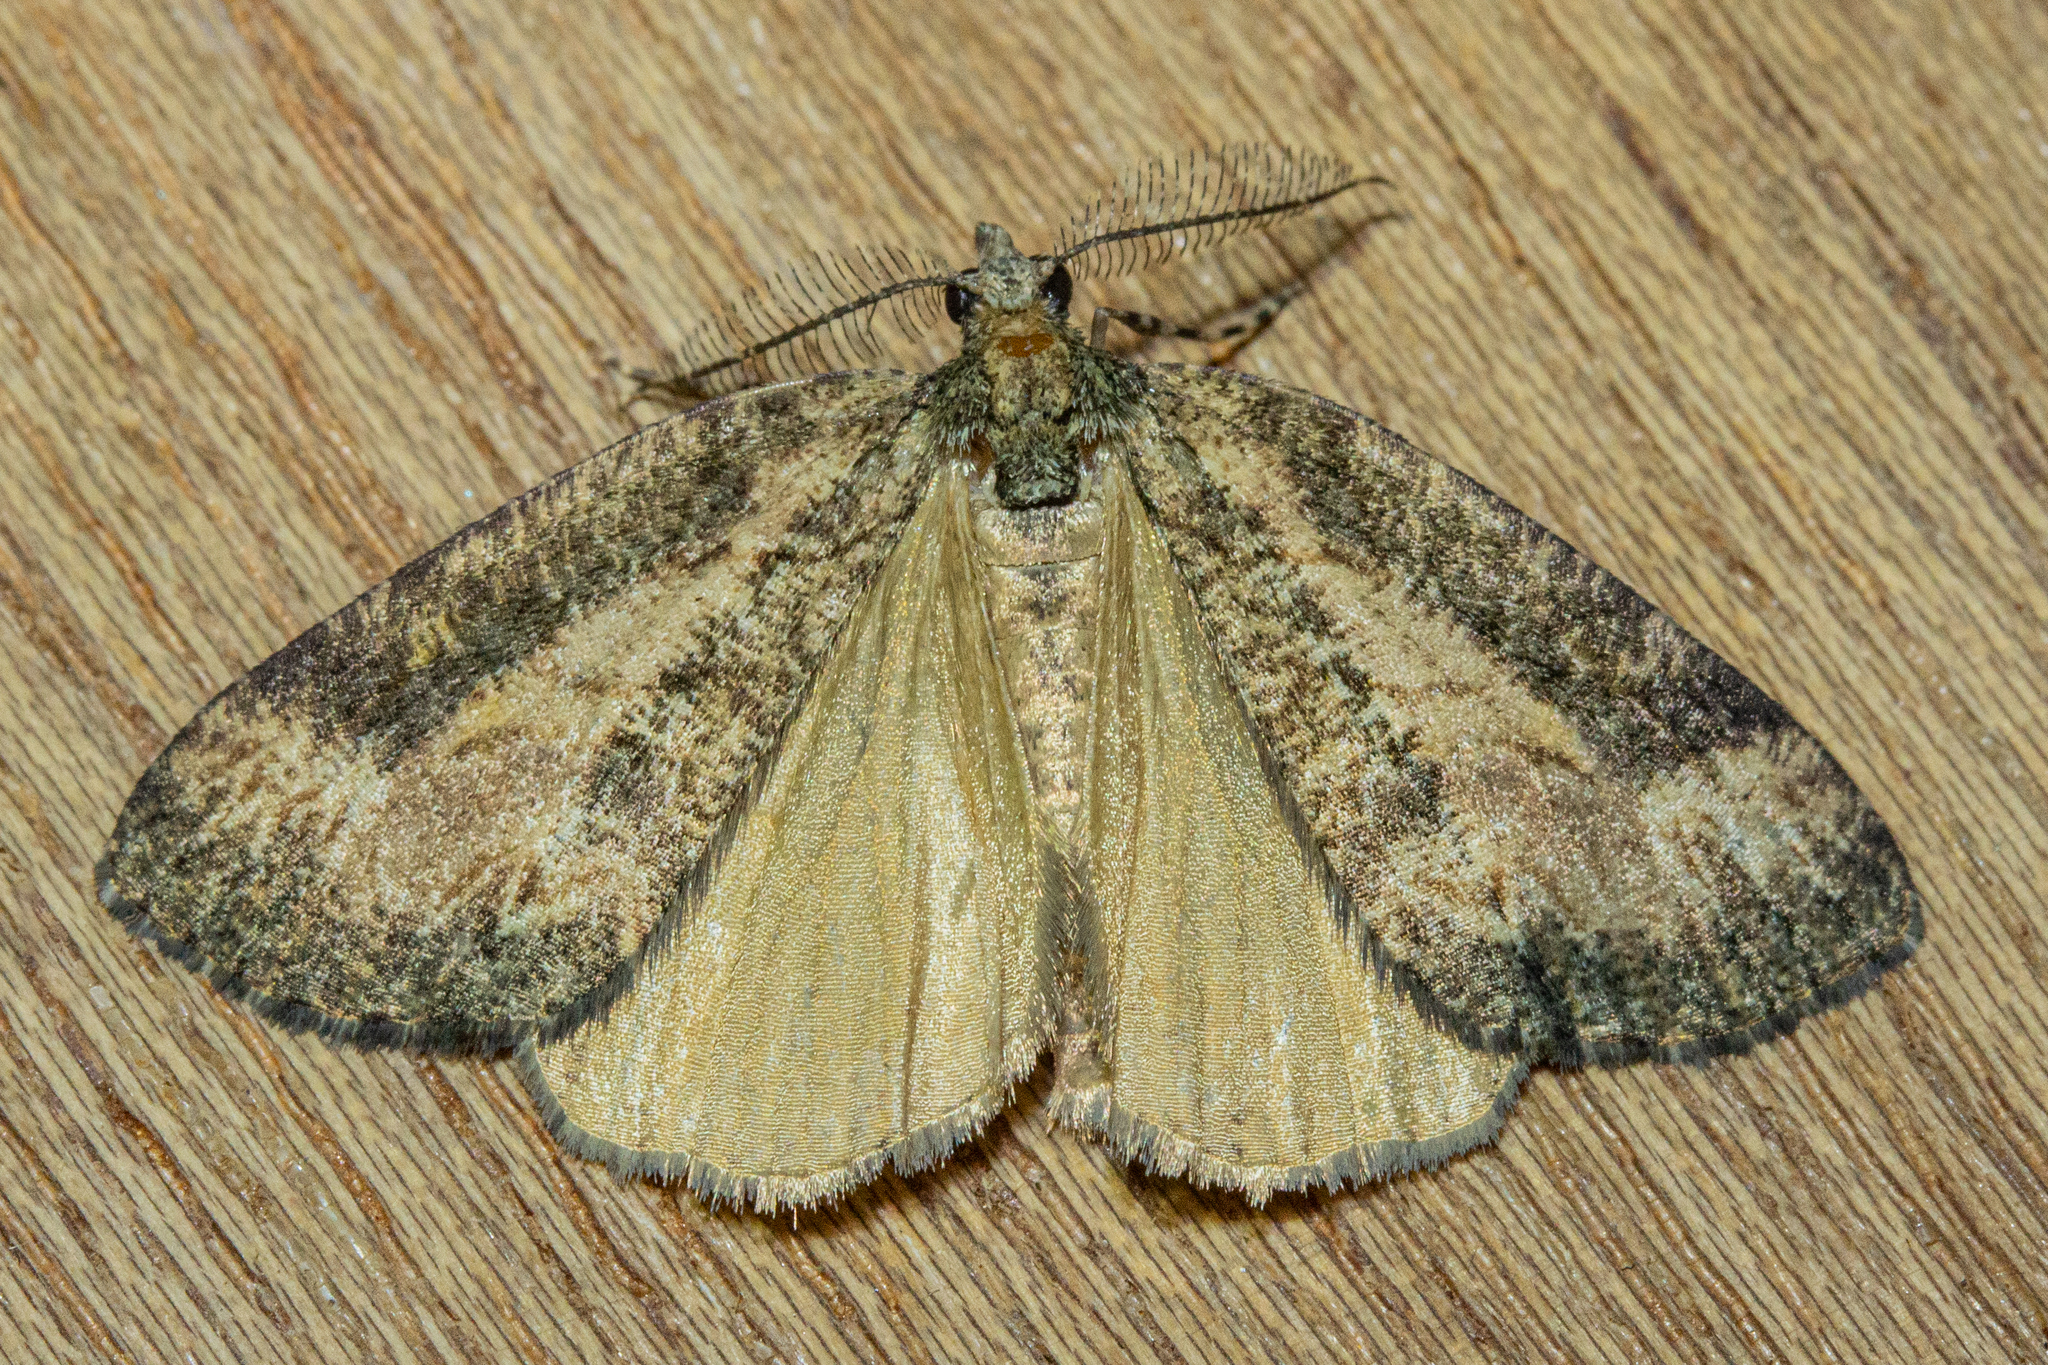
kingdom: Animalia
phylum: Arthropoda
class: Insecta
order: Lepidoptera
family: Geometridae
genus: Chalastra
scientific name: Chalastra ochrea
